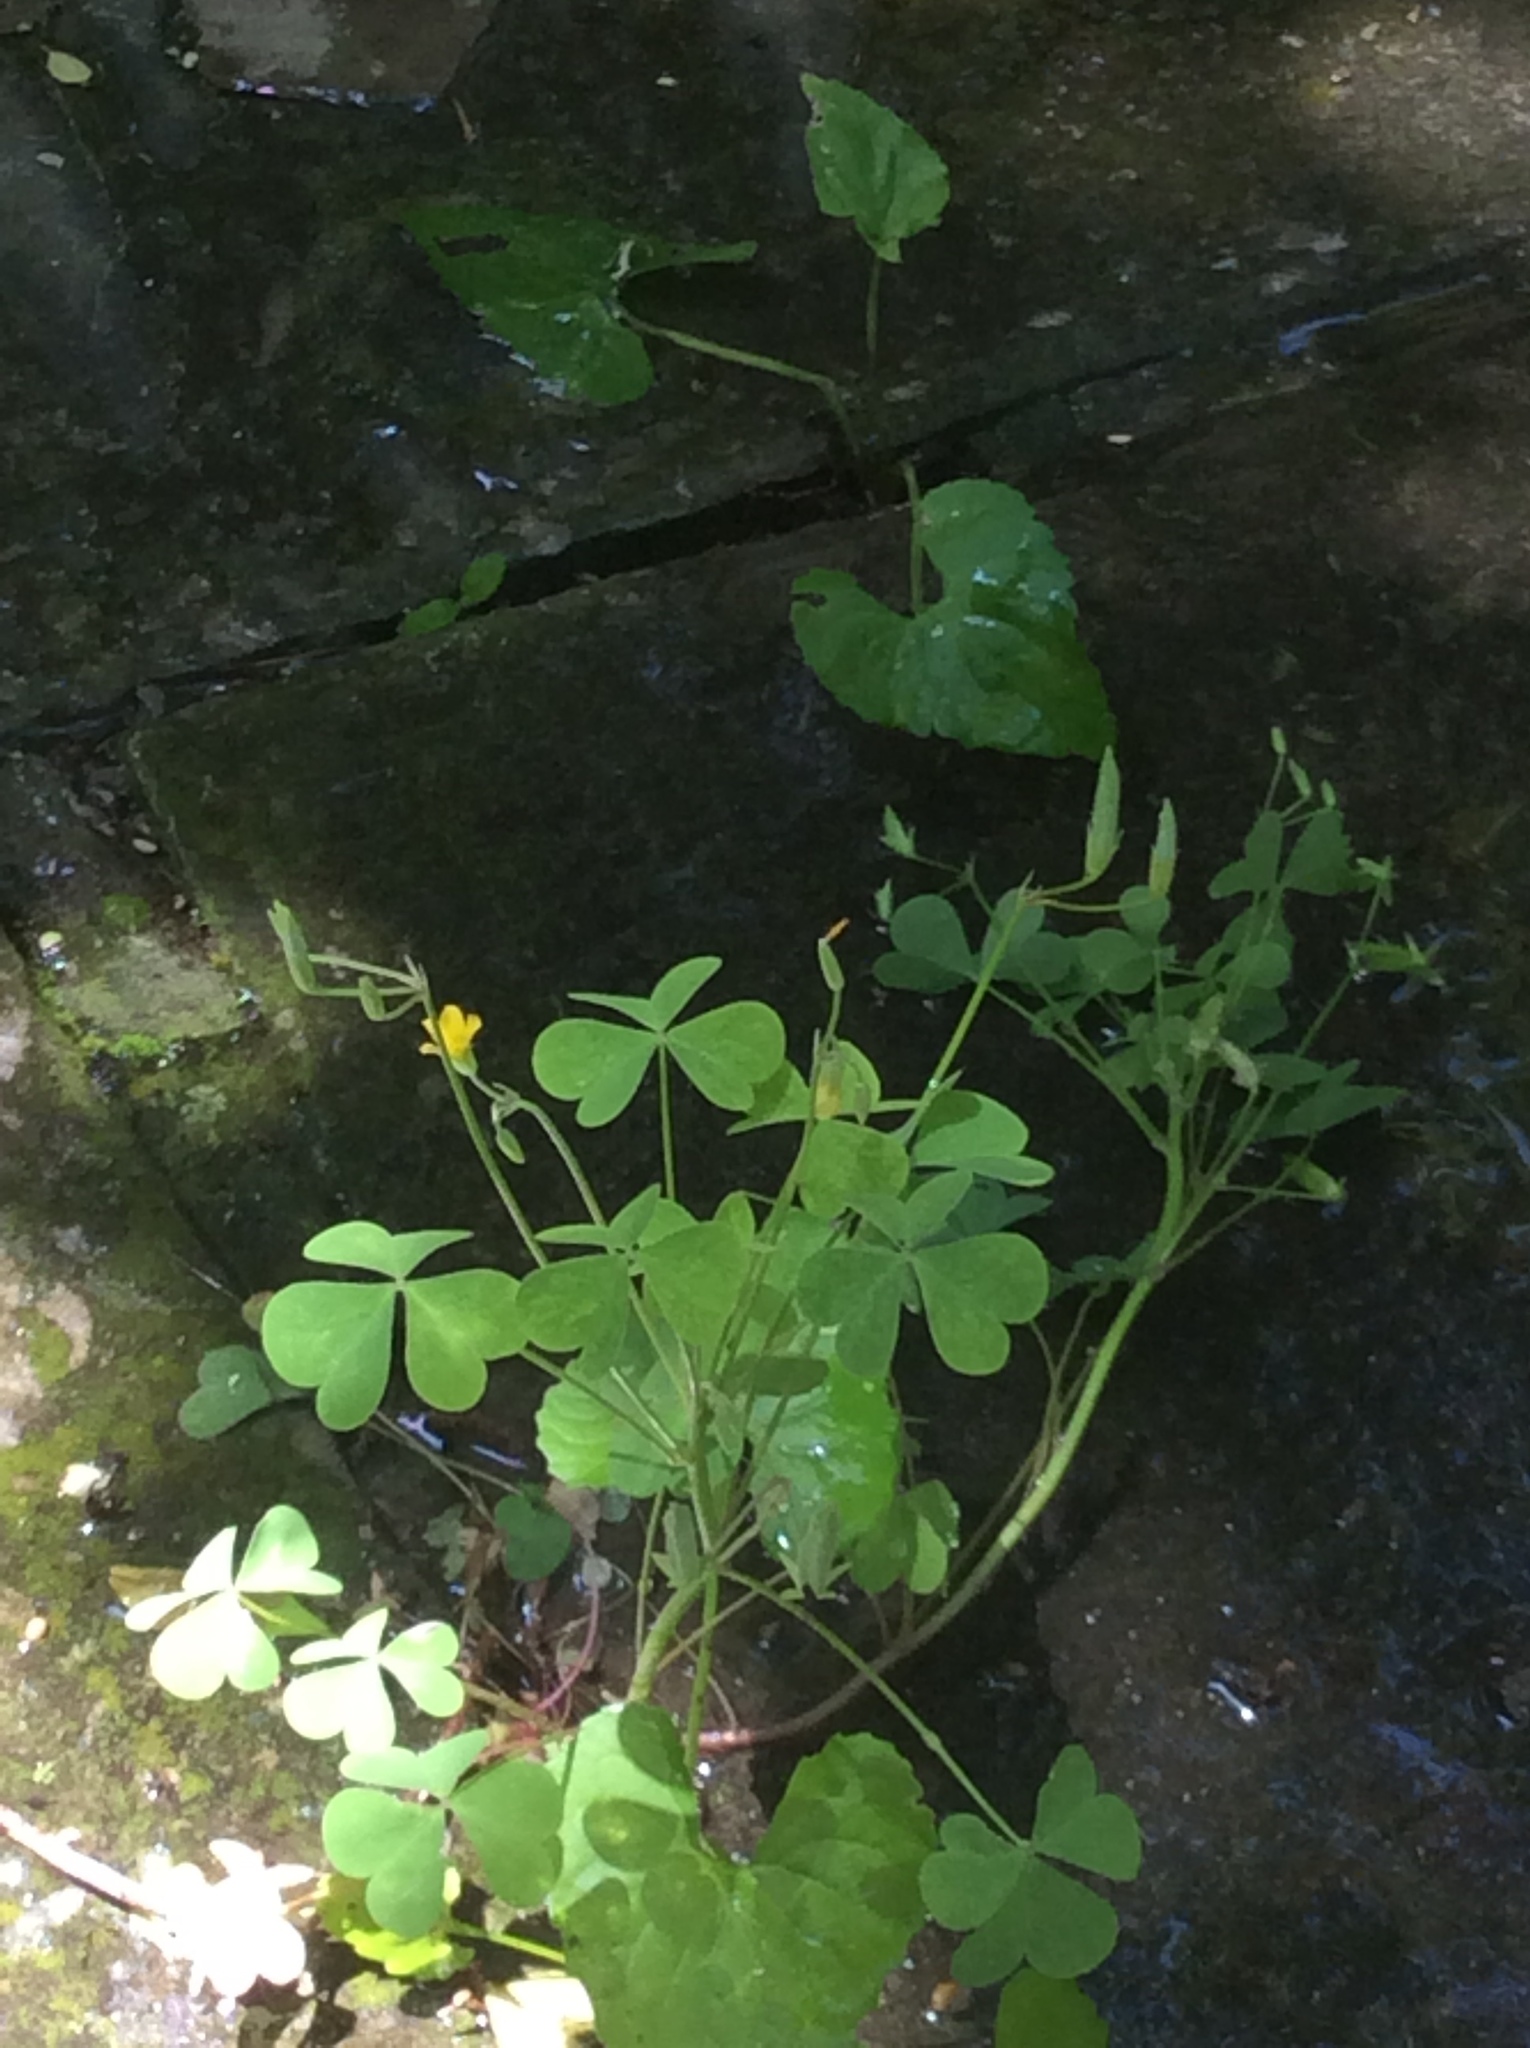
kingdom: Plantae
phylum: Tracheophyta
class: Magnoliopsida
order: Oxalidales
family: Oxalidaceae
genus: Oxalis
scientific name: Oxalis dillenii
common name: Sussex yellow-sorrel
